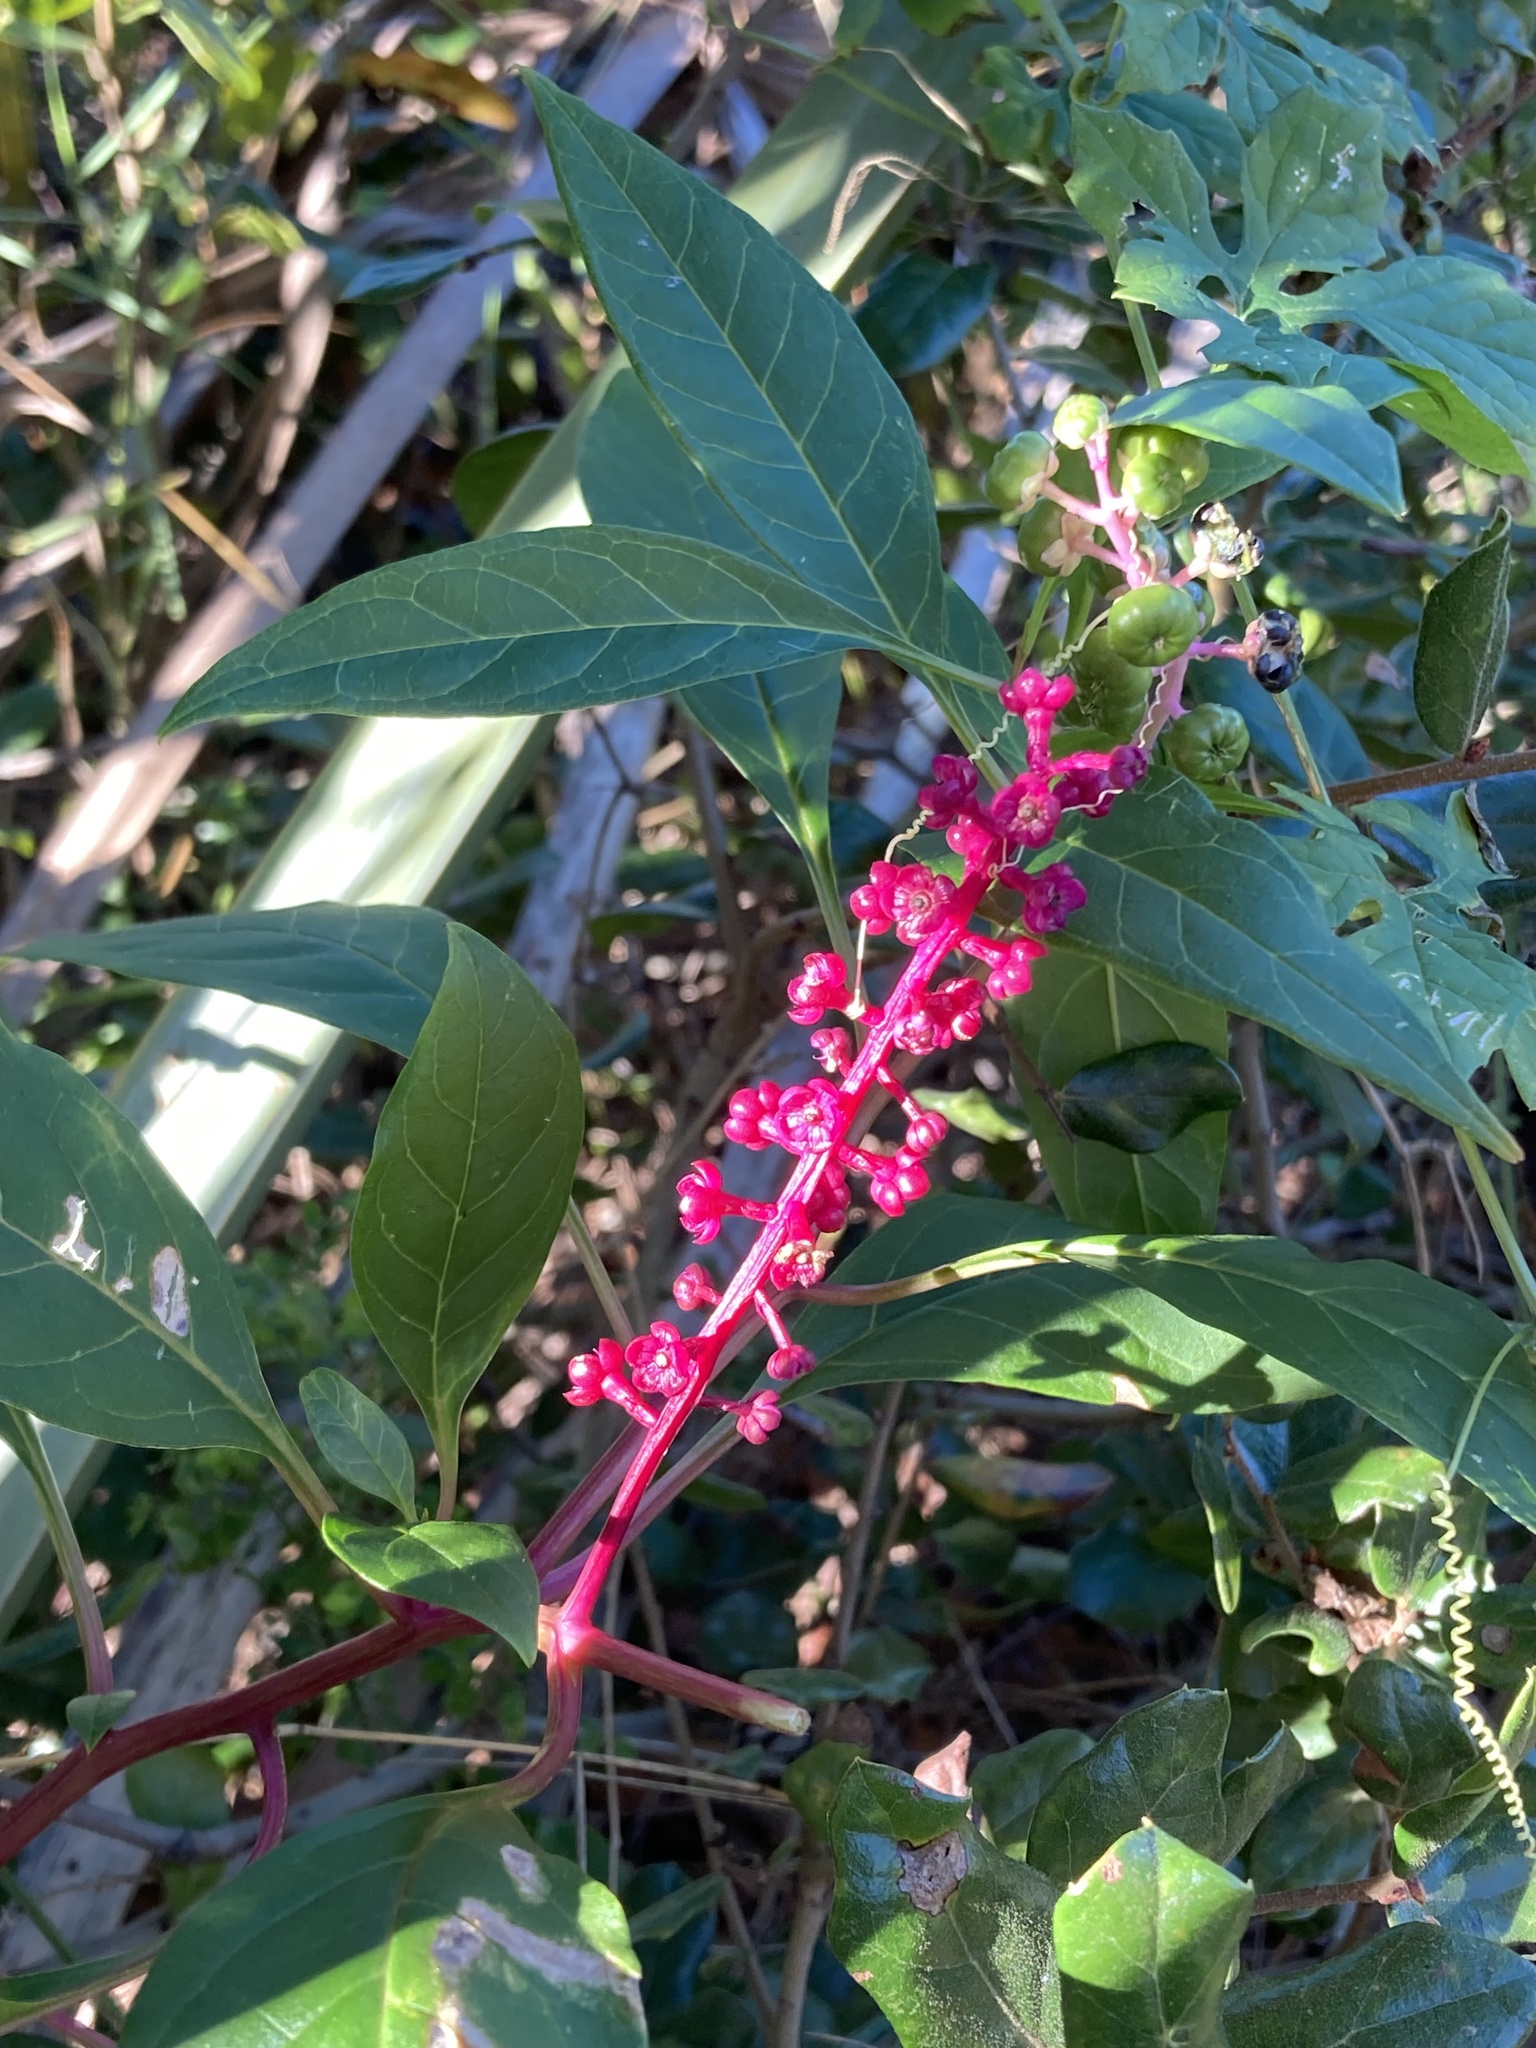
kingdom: Plantae
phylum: Tracheophyta
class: Magnoliopsida
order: Caryophyllales
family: Phytolaccaceae
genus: Phytolacca
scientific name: Phytolacca americana
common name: American pokeweed
